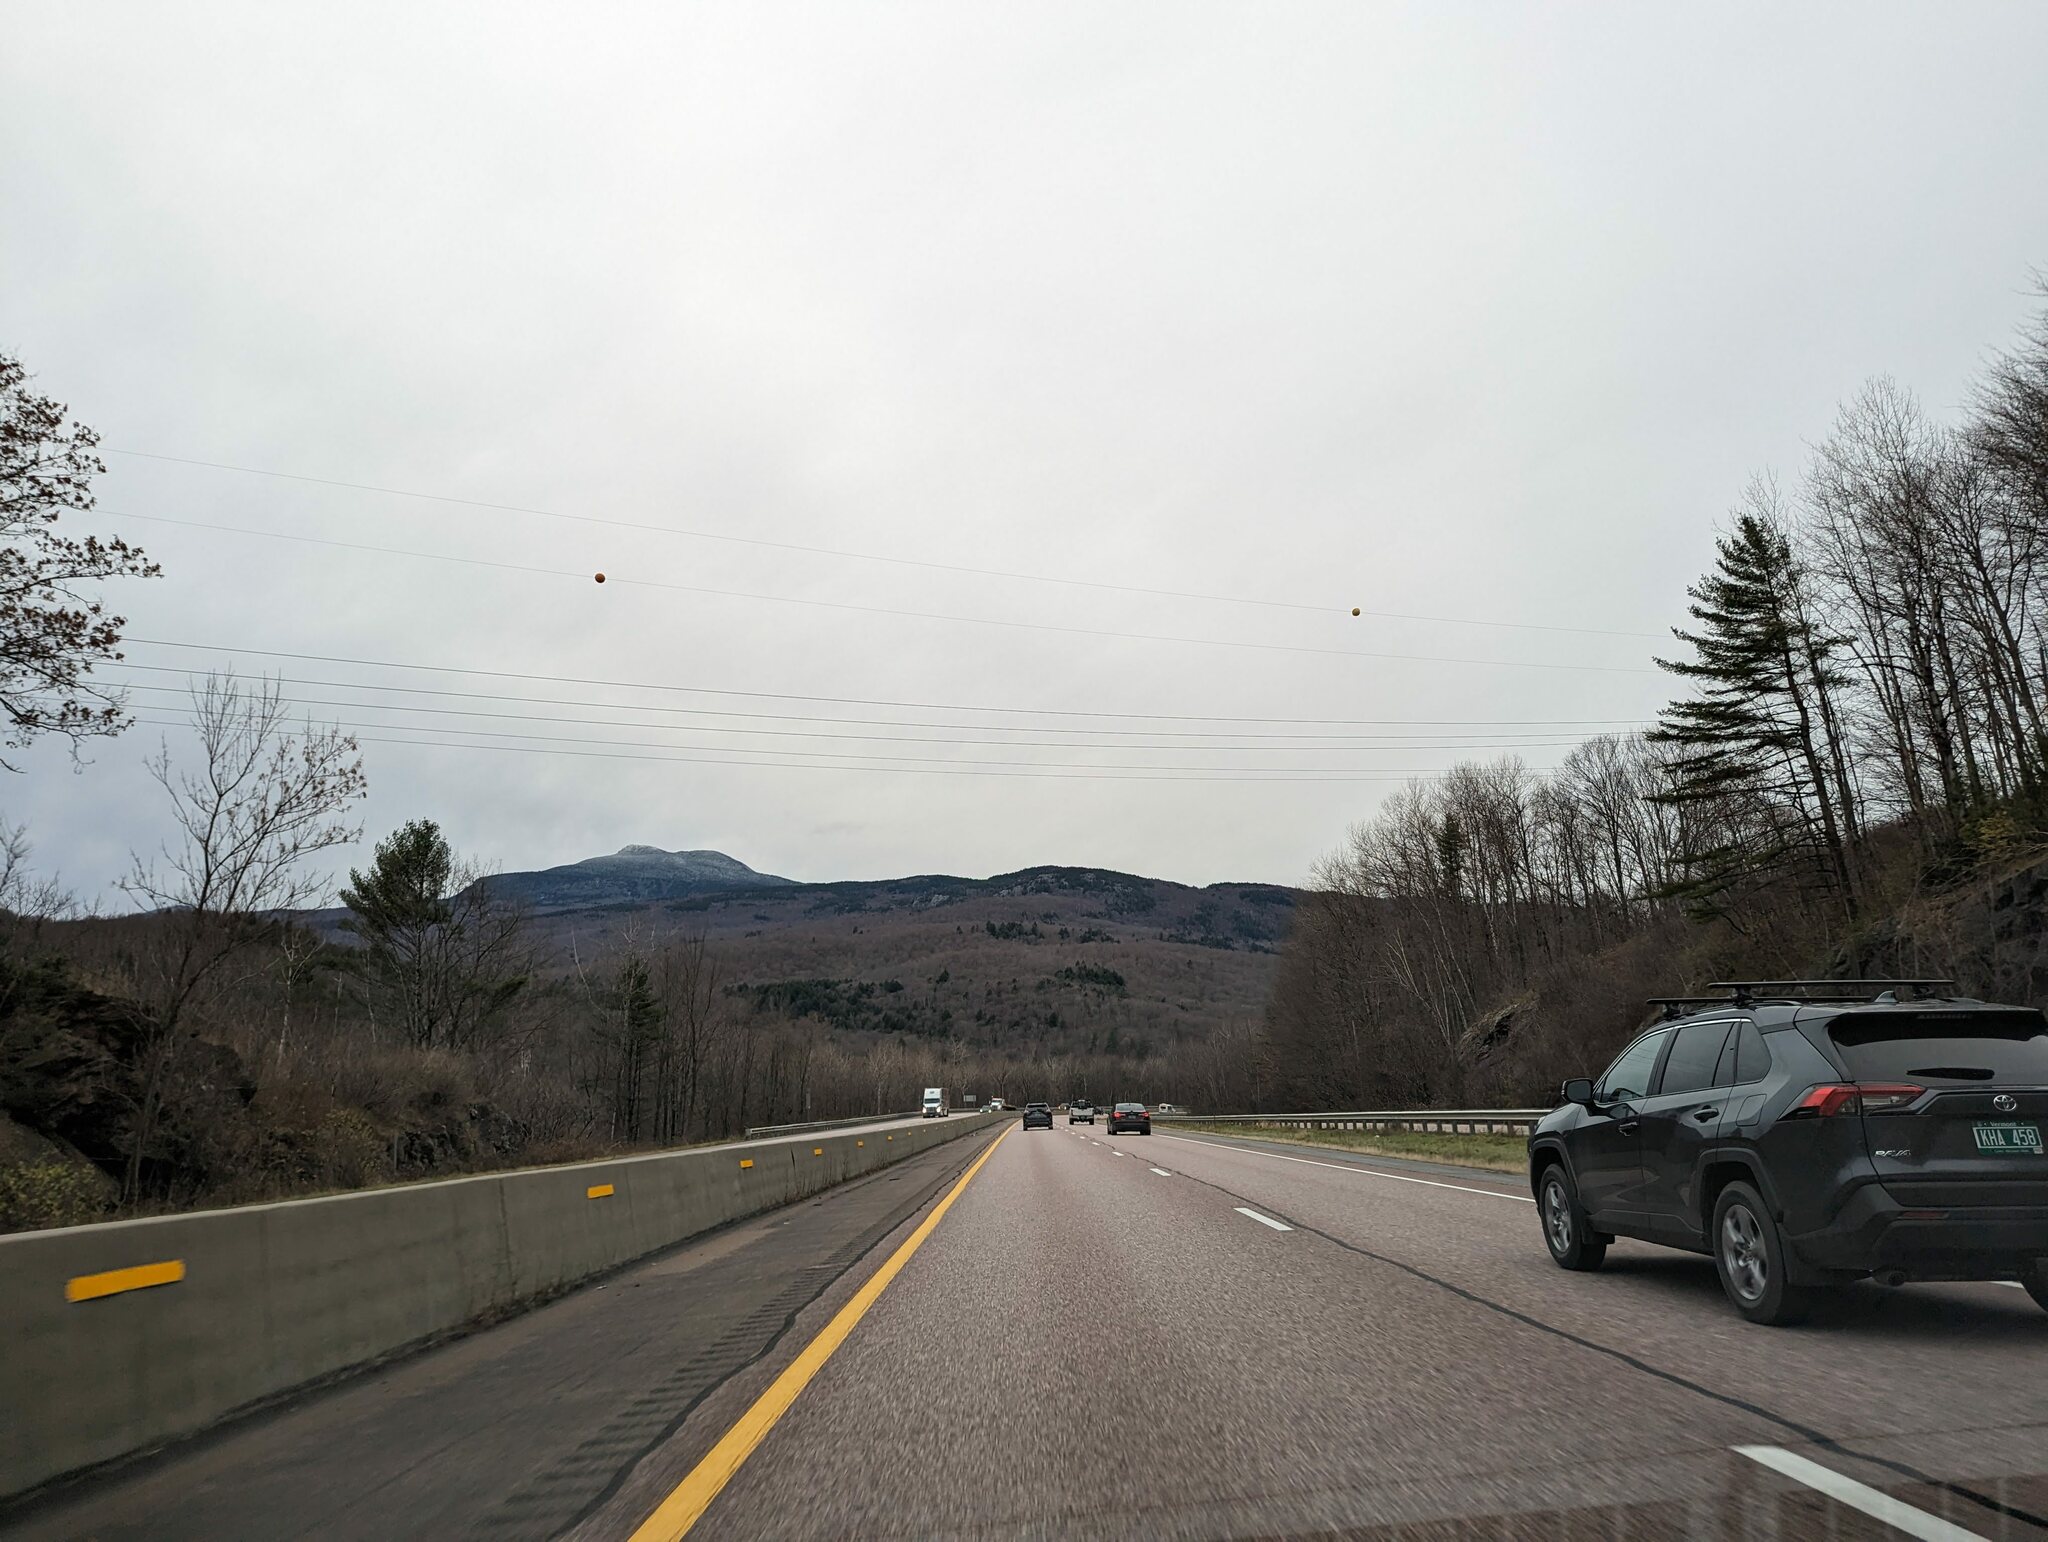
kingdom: Plantae
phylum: Tracheophyta
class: Pinopsida
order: Pinales
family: Pinaceae
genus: Pinus
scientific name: Pinus strobus
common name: Weymouth pine
